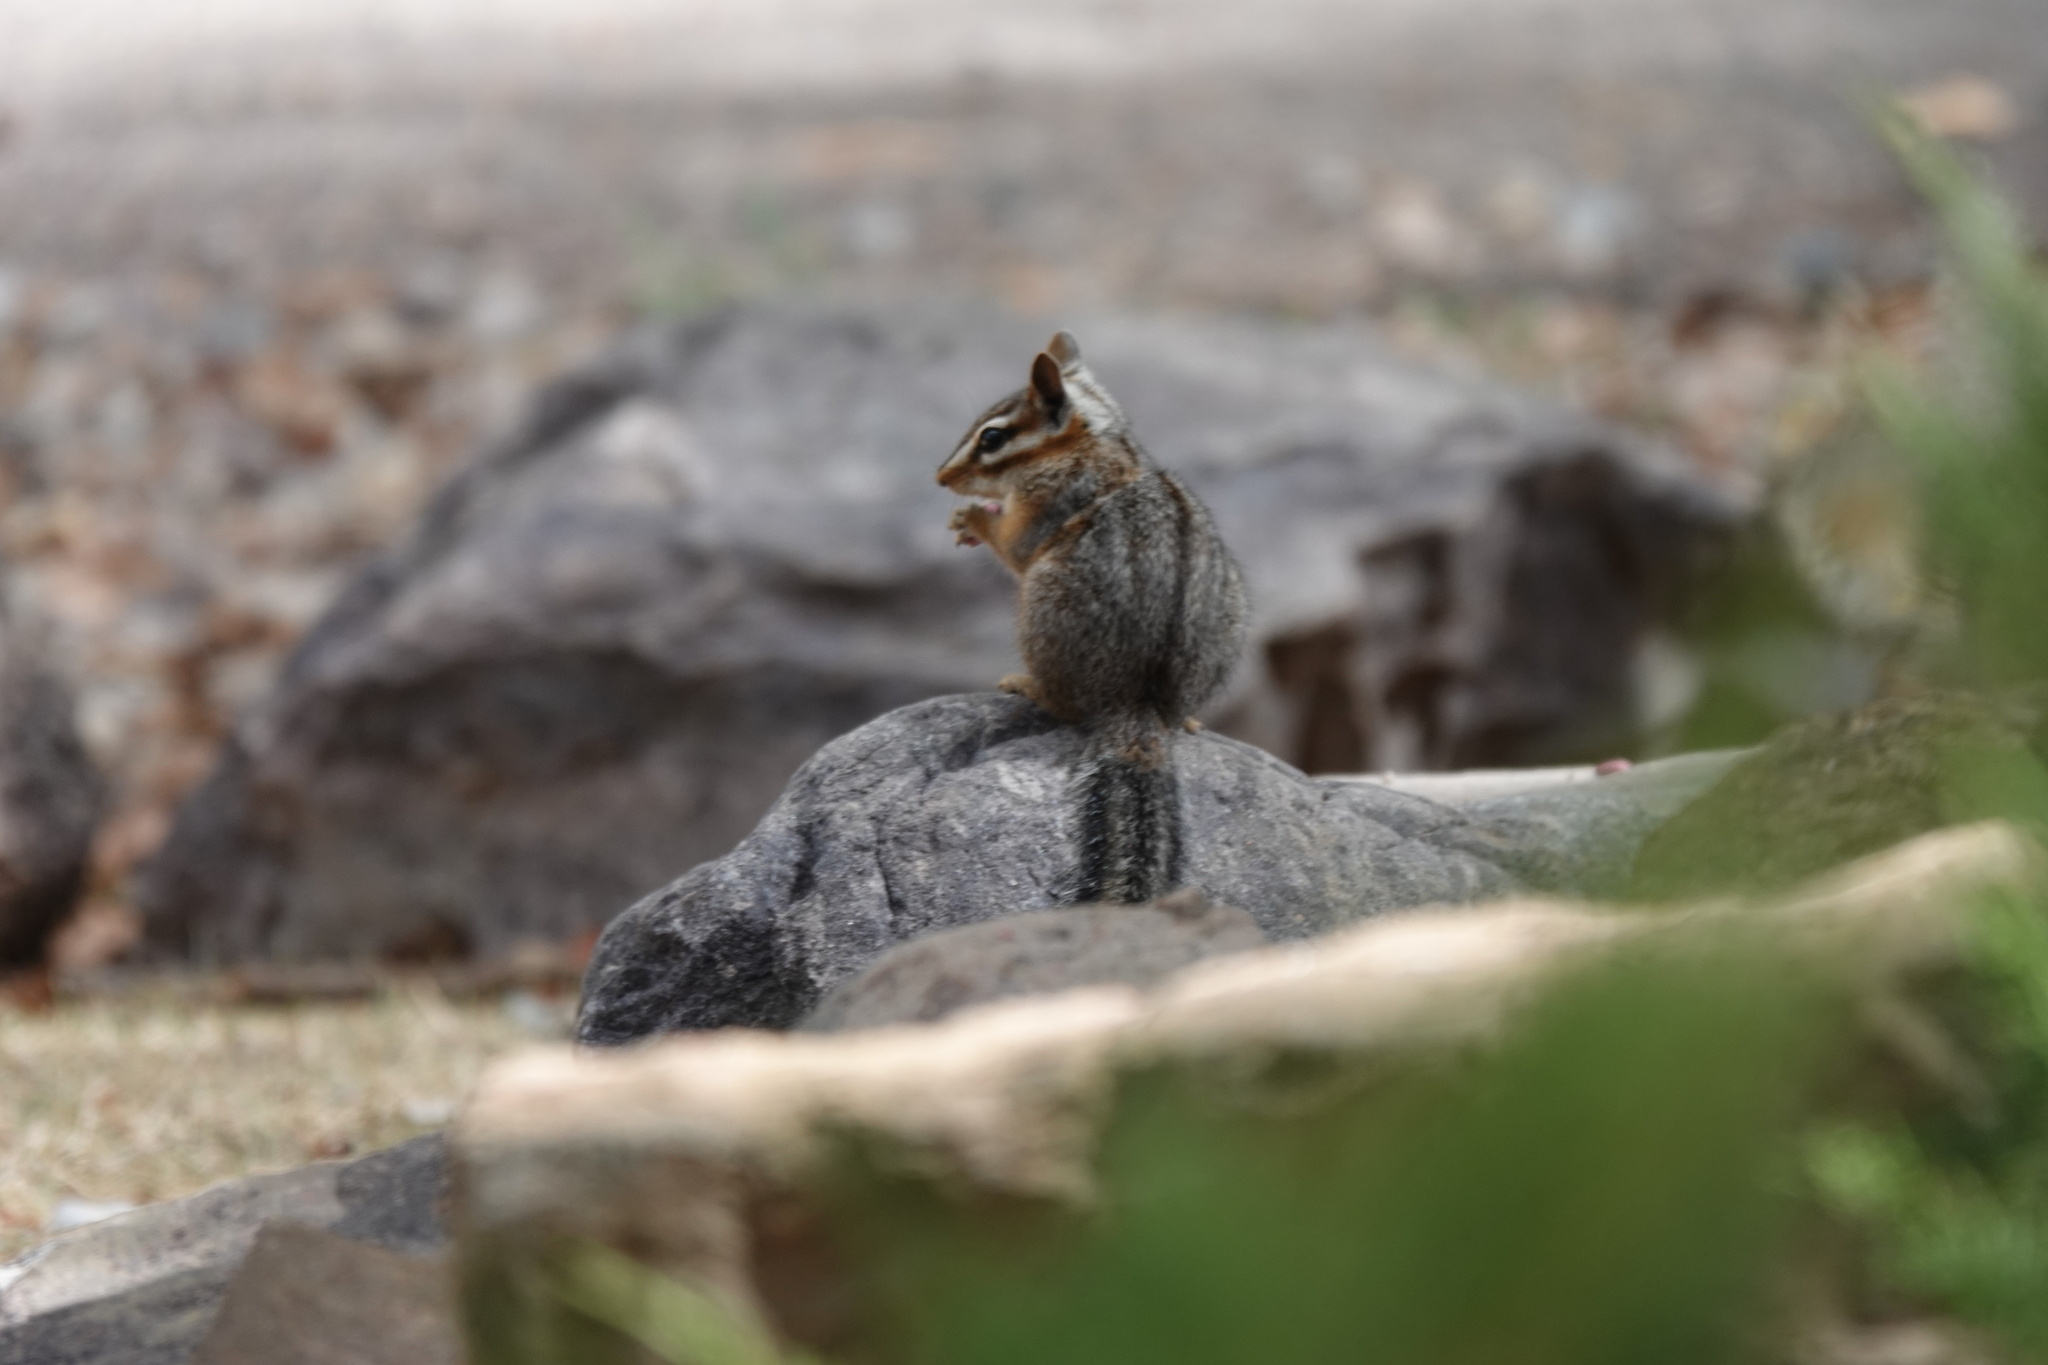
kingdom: Animalia
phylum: Chordata
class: Mammalia
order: Rodentia
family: Sciuridae
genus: Tamias
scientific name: Tamias dorsalis
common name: Cliff chipmunk
